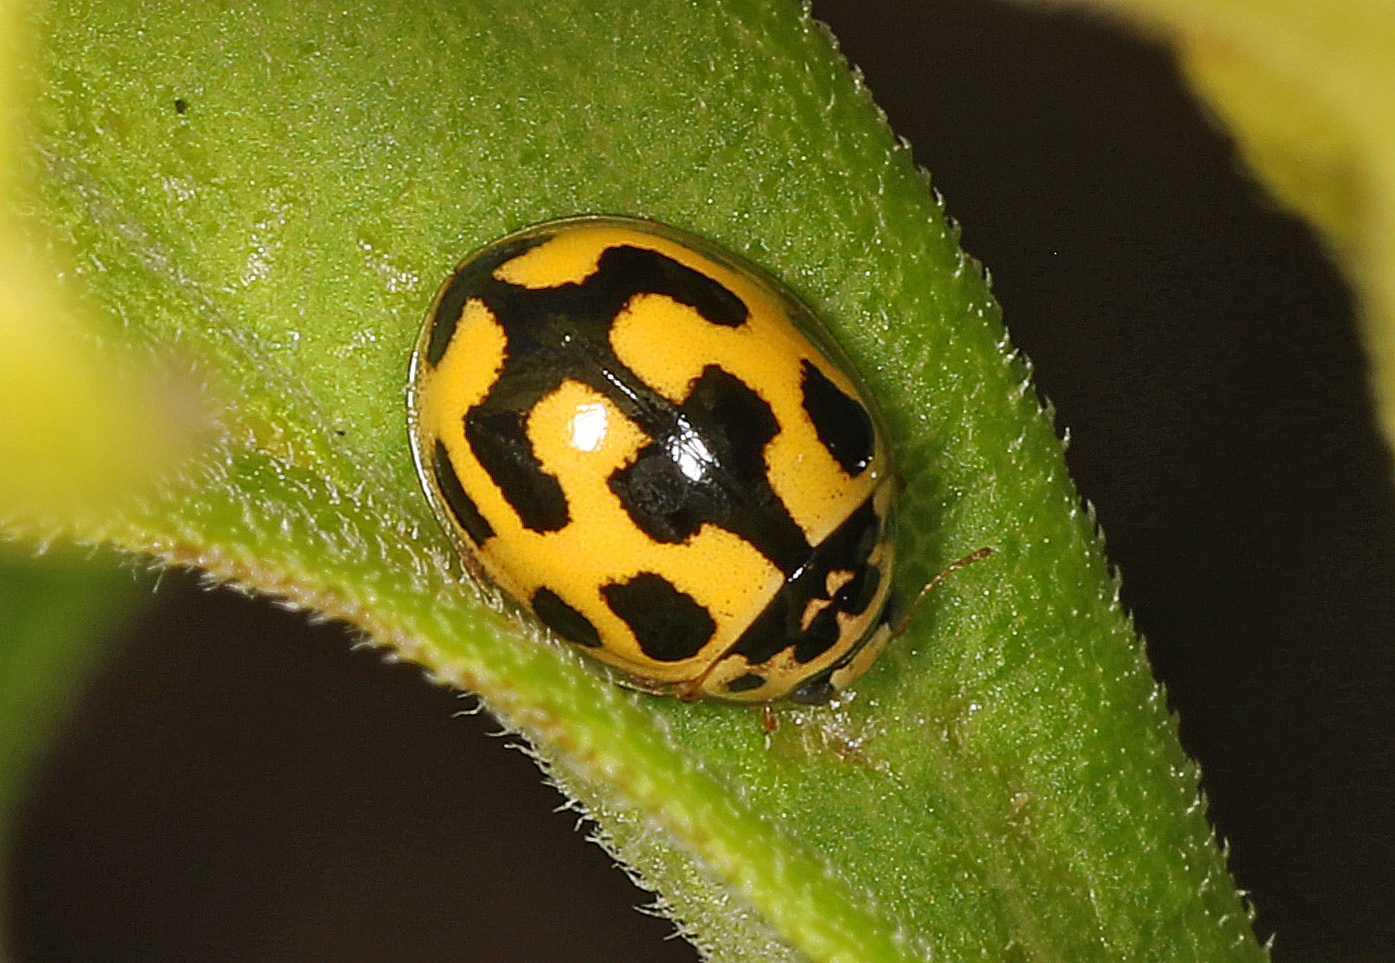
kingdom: Animalia
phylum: Arthropoda
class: Insecta
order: Coleoptera
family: Coccinellidae
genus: Propylaea
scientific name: Propylaea quatuordecimpunctata
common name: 14-spotted ladybird beetle
